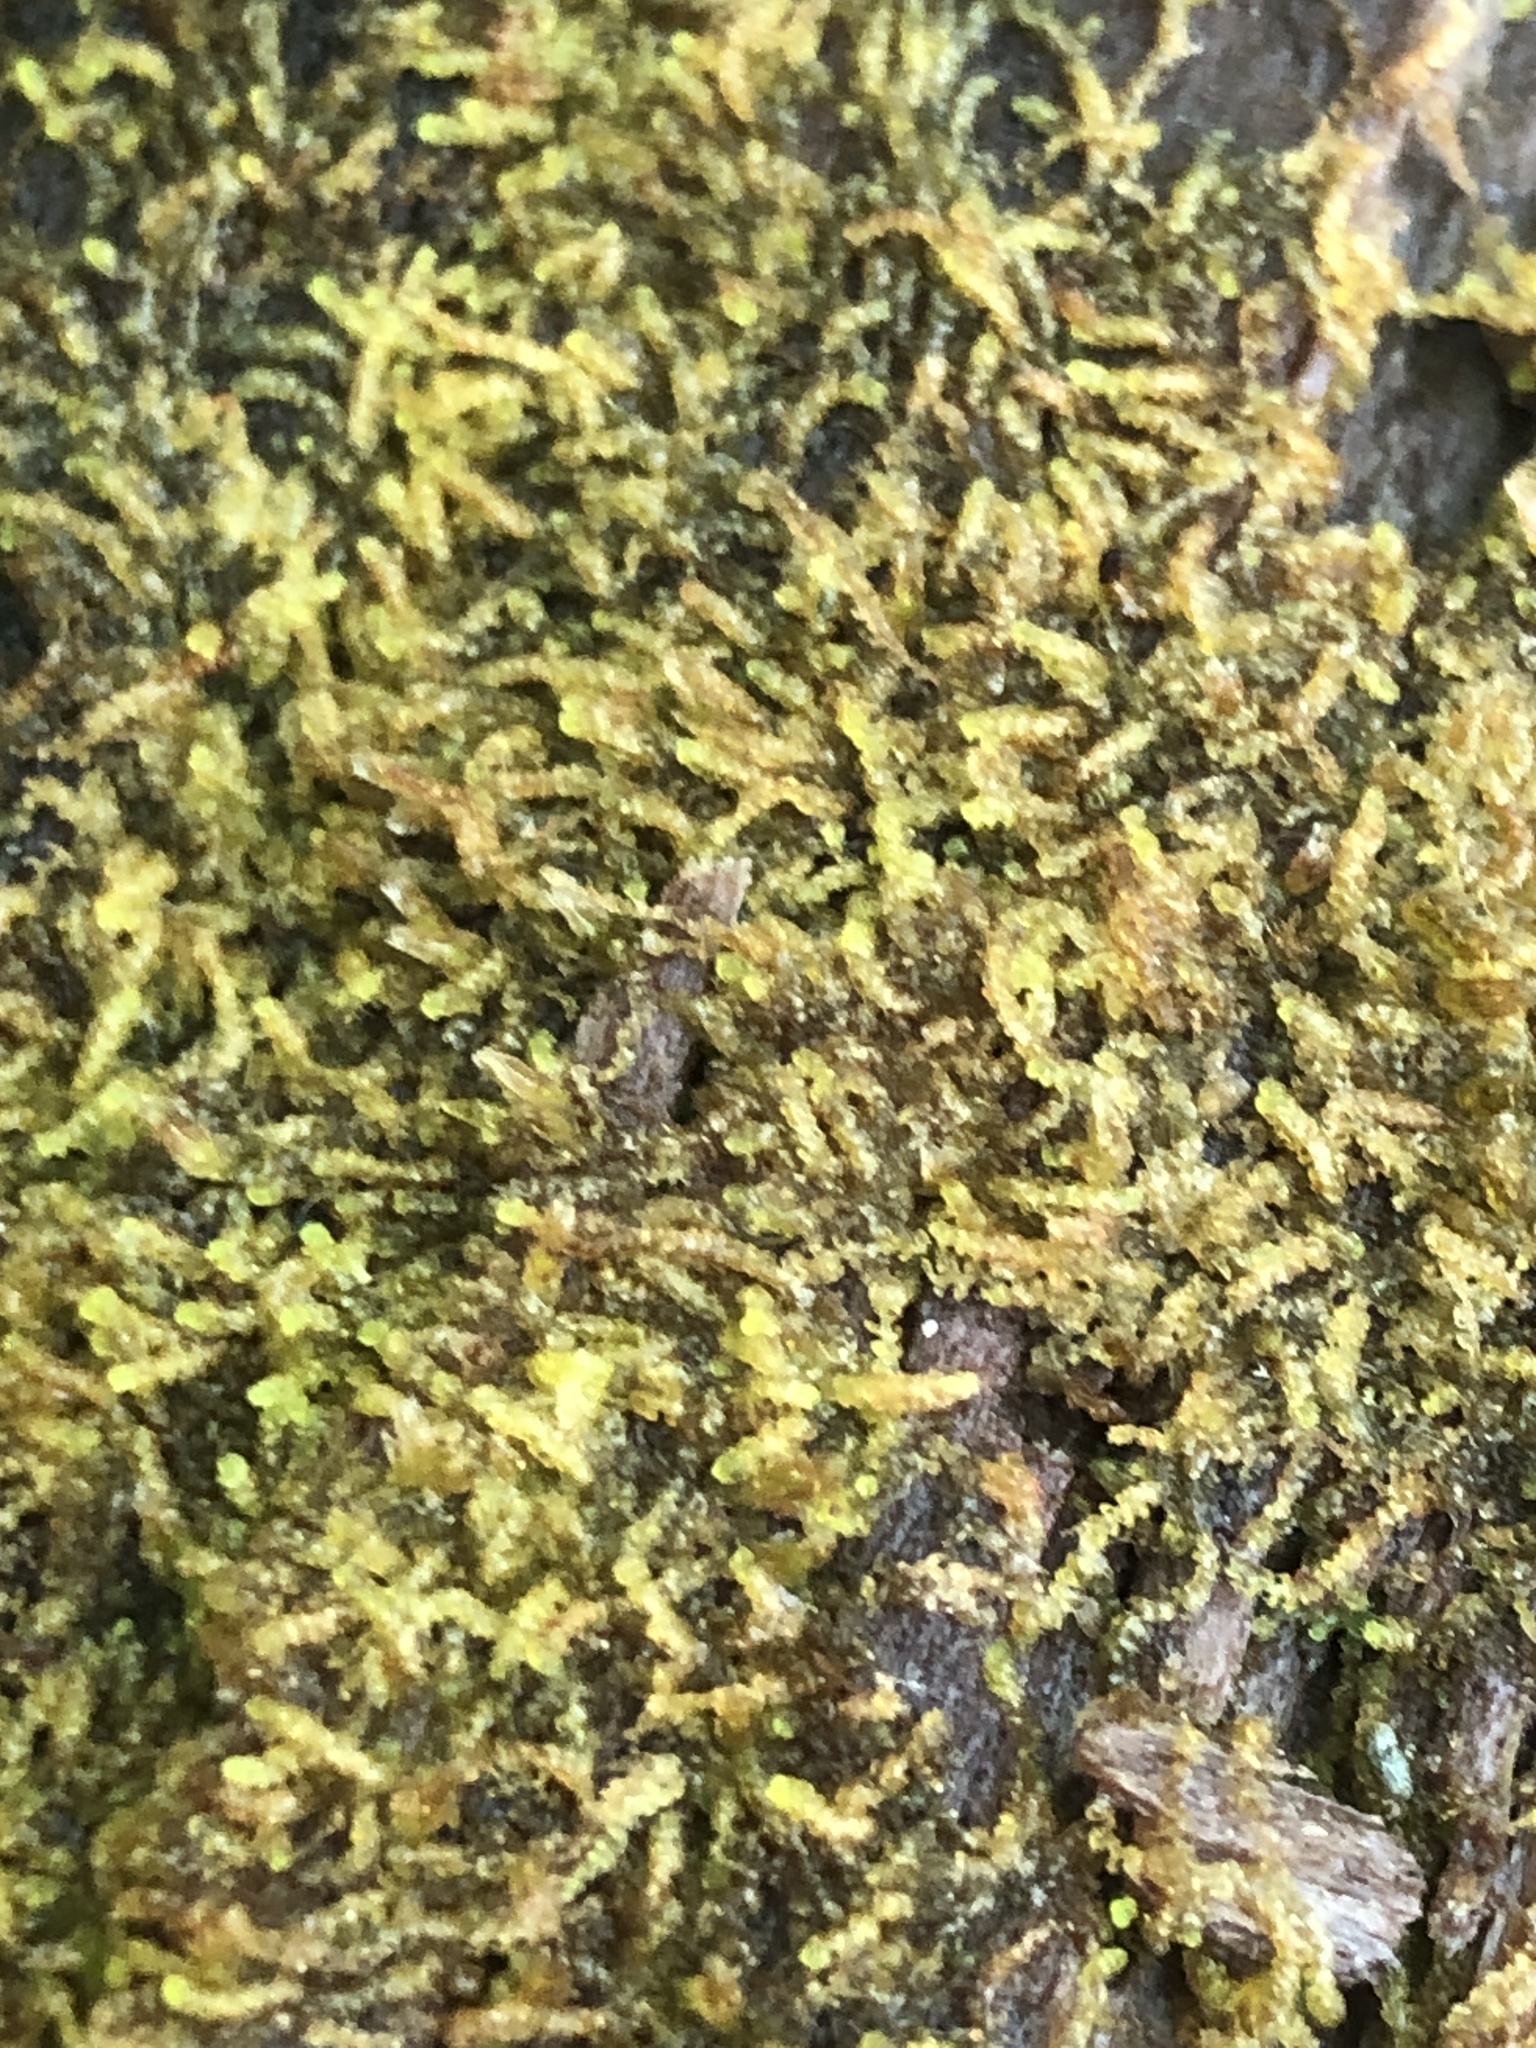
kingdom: Plantae
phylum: Marchantiophyta
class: Jungermanniopsida
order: Jungermanniales
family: Cephaloziaceae
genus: Nowellia
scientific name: Nowellia curvifolia
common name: Wood rustwort
